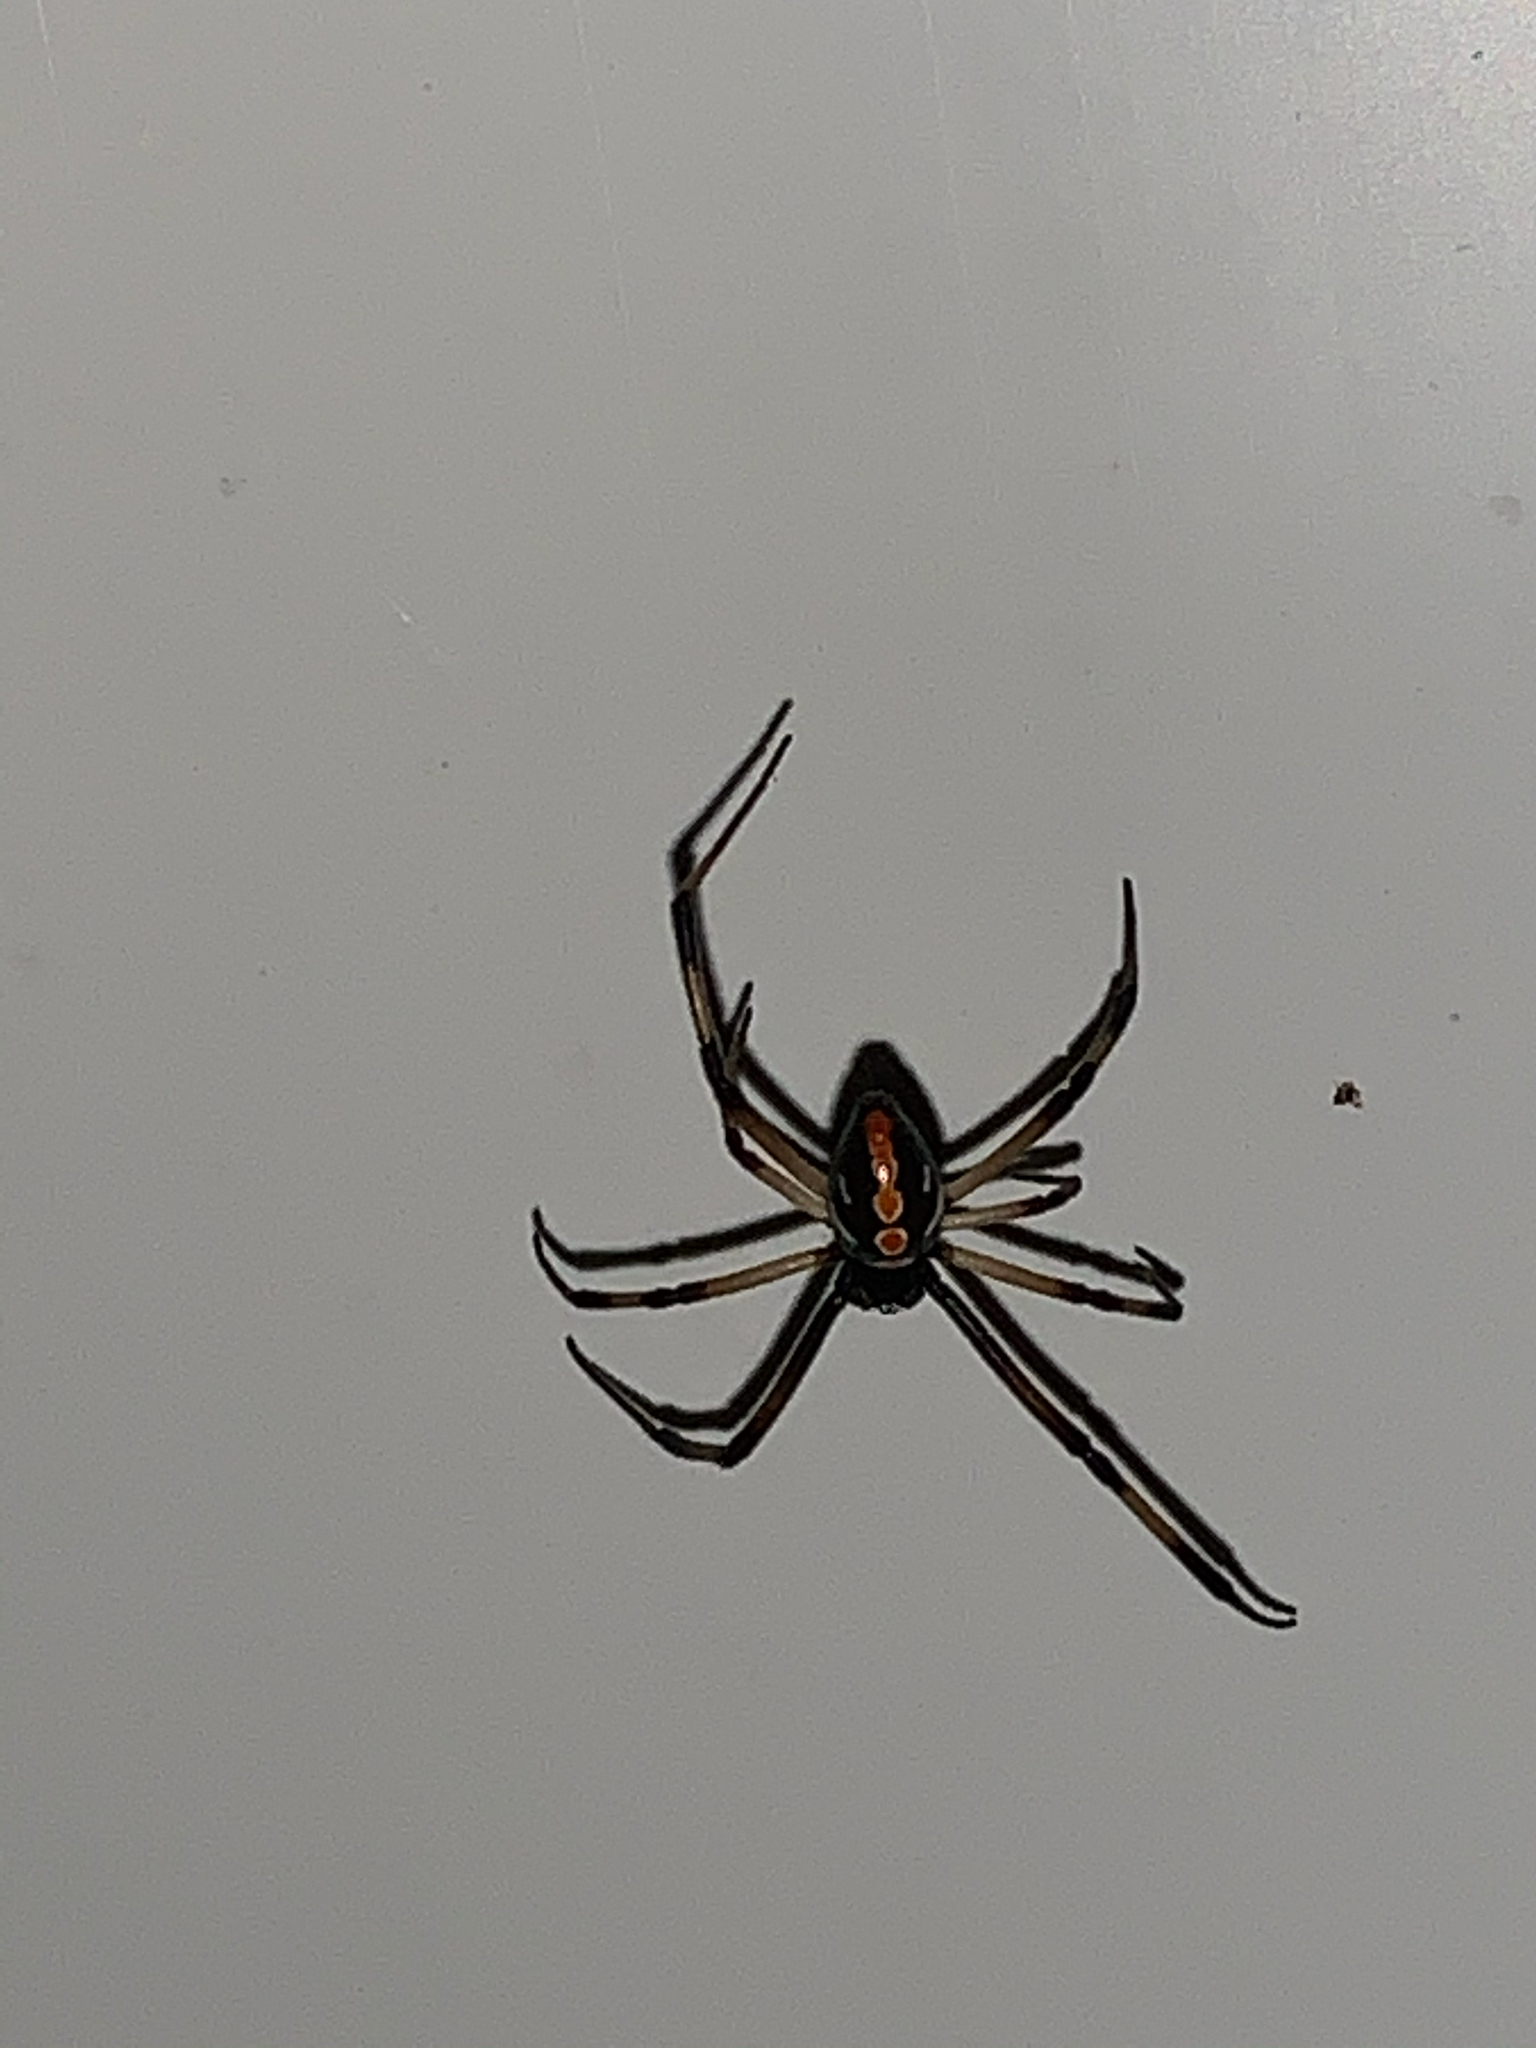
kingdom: Animalia
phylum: Arthropoda
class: Arachnida
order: Araneae
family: Theridiidae
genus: Latrodectus
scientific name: Latrodectus mactans
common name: Cobweb spiders
